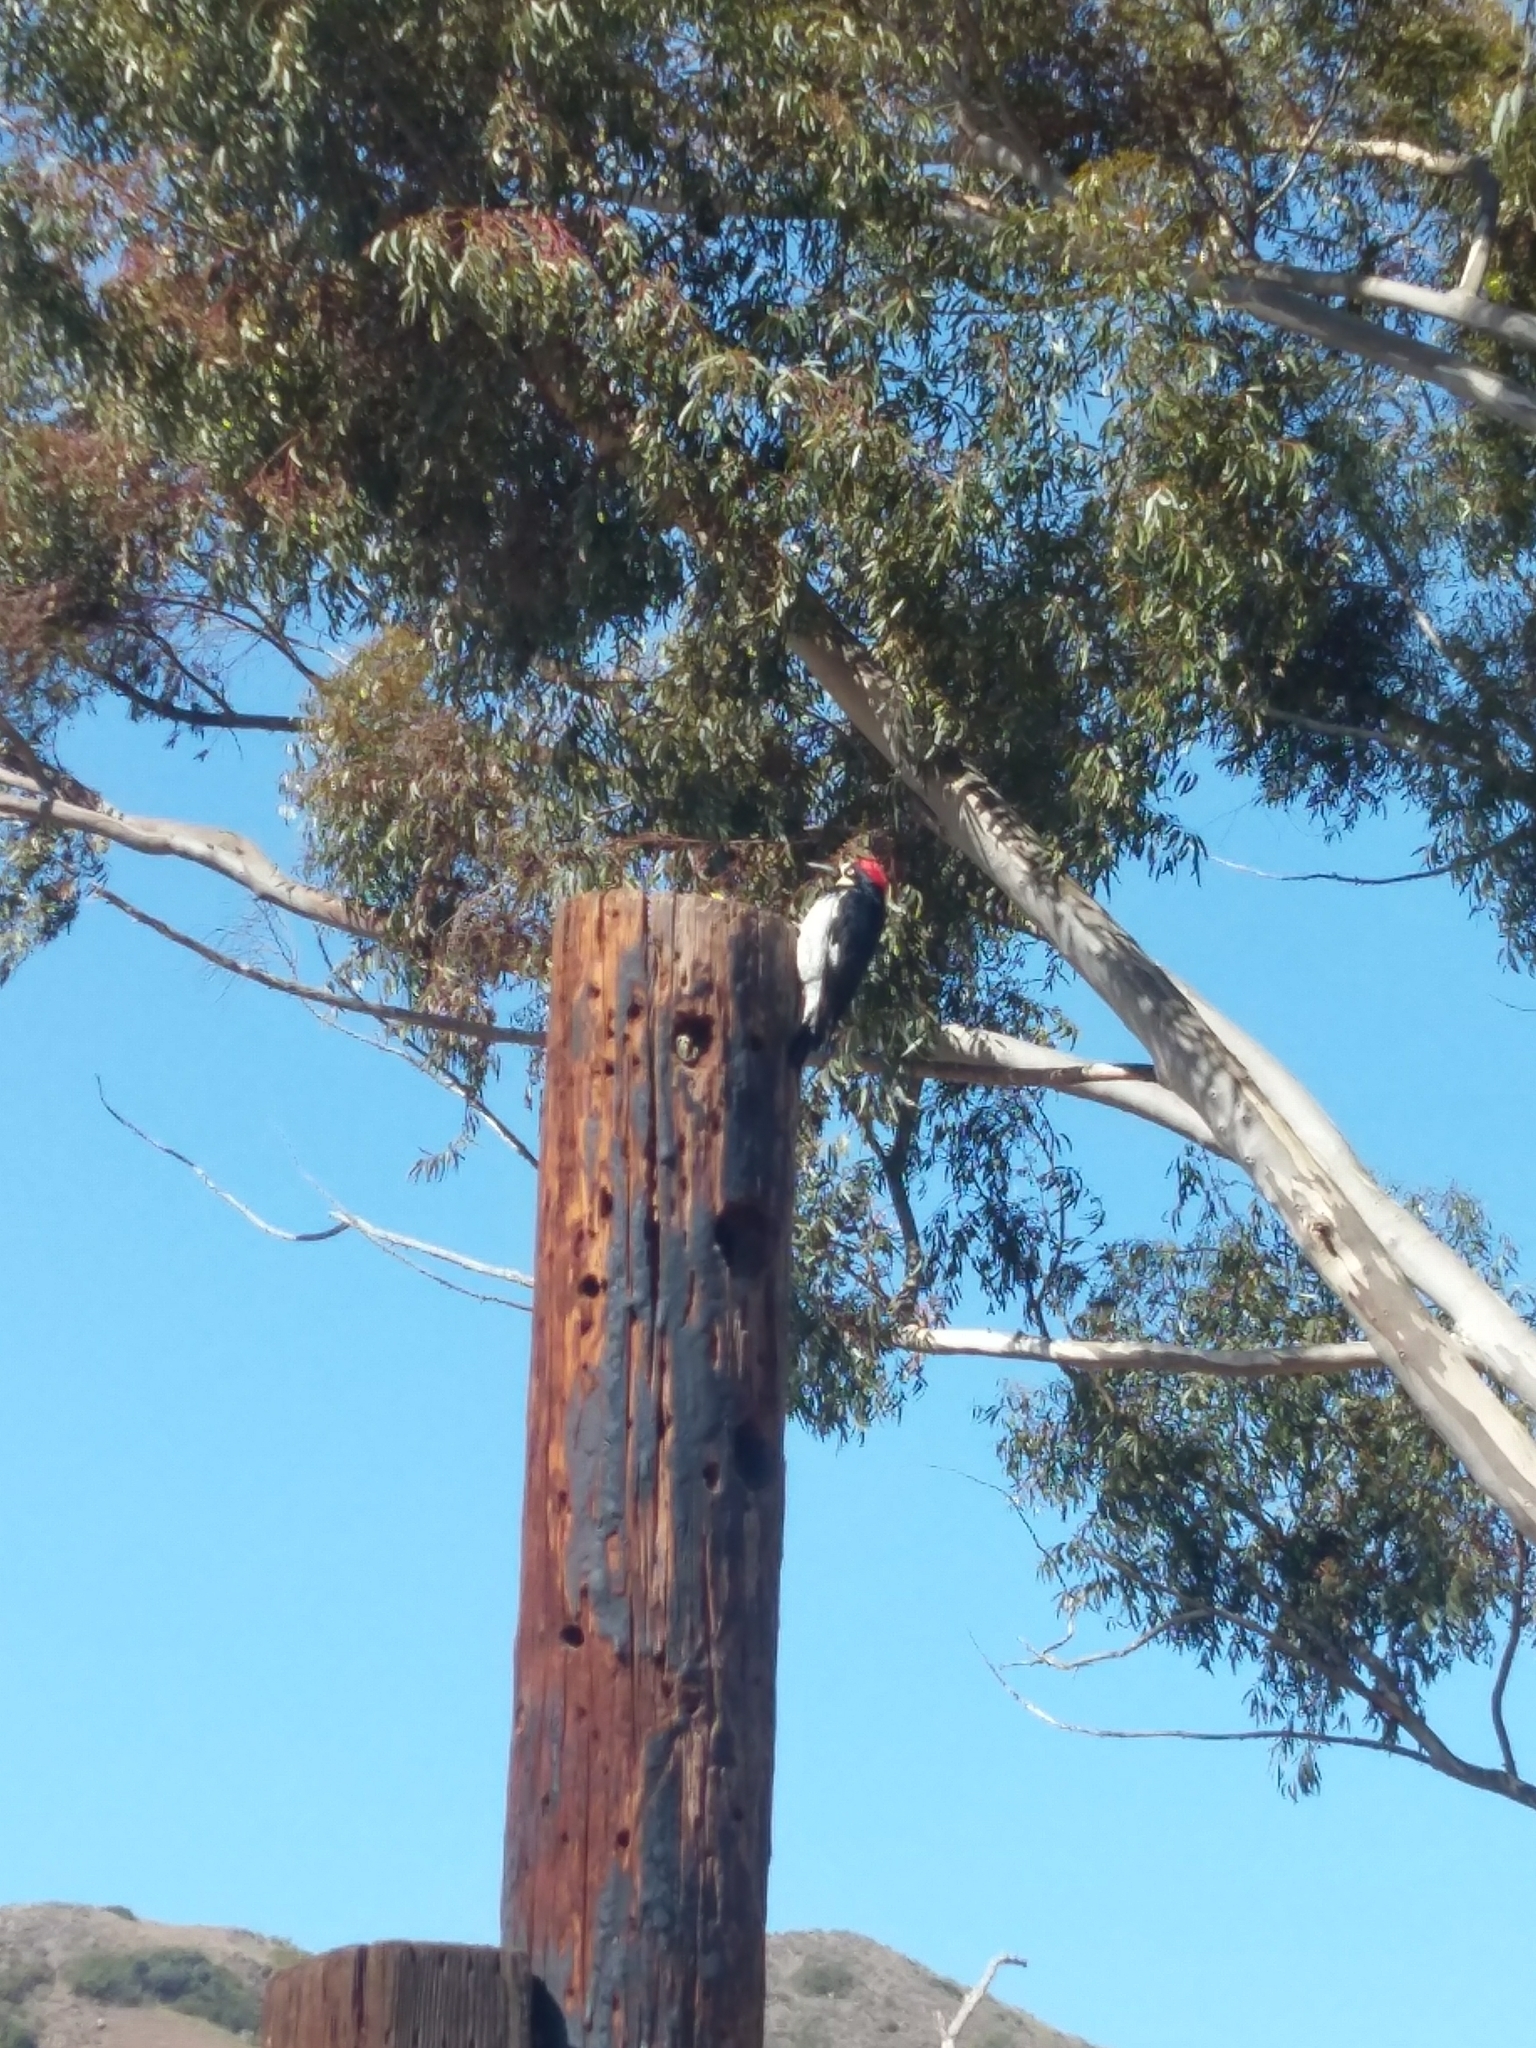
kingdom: Animalia
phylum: Chordata
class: Aves
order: Piciformes
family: Picidae
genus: Melanerpes
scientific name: Melanerpes formicivorus
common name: Acorn woodpecker
